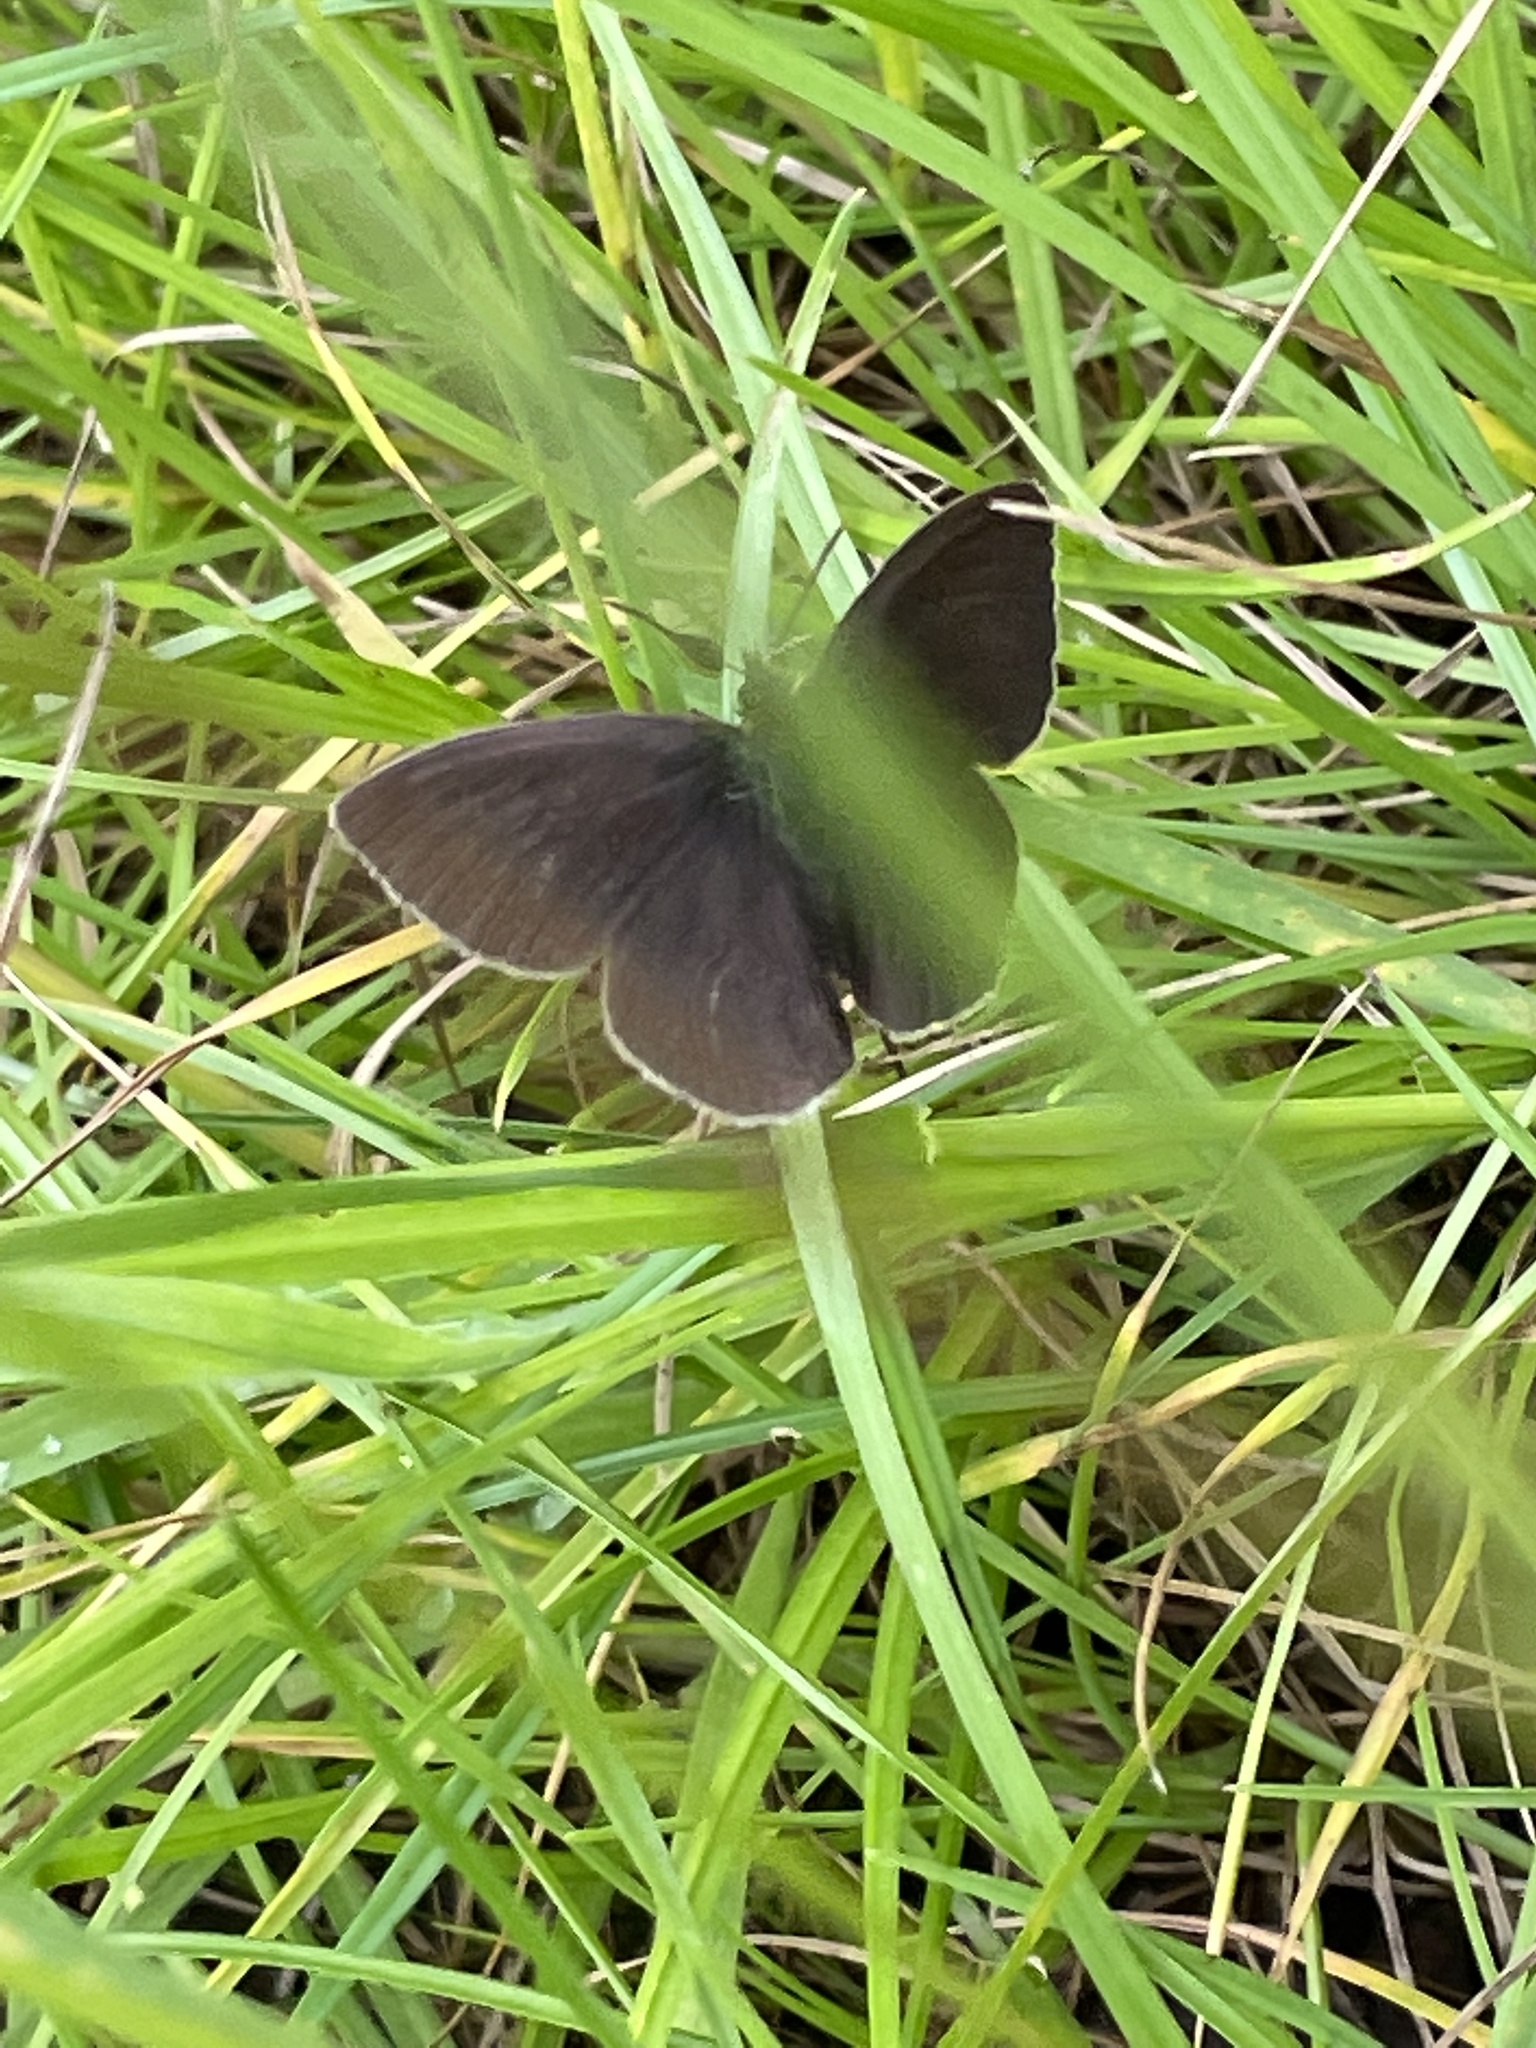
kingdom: Animalia
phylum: Arthropoda
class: Insecta
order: Lepidoptera
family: Nymphalidae
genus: Aphantopus
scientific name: Aphantopus hyperantus
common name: Ringlet
